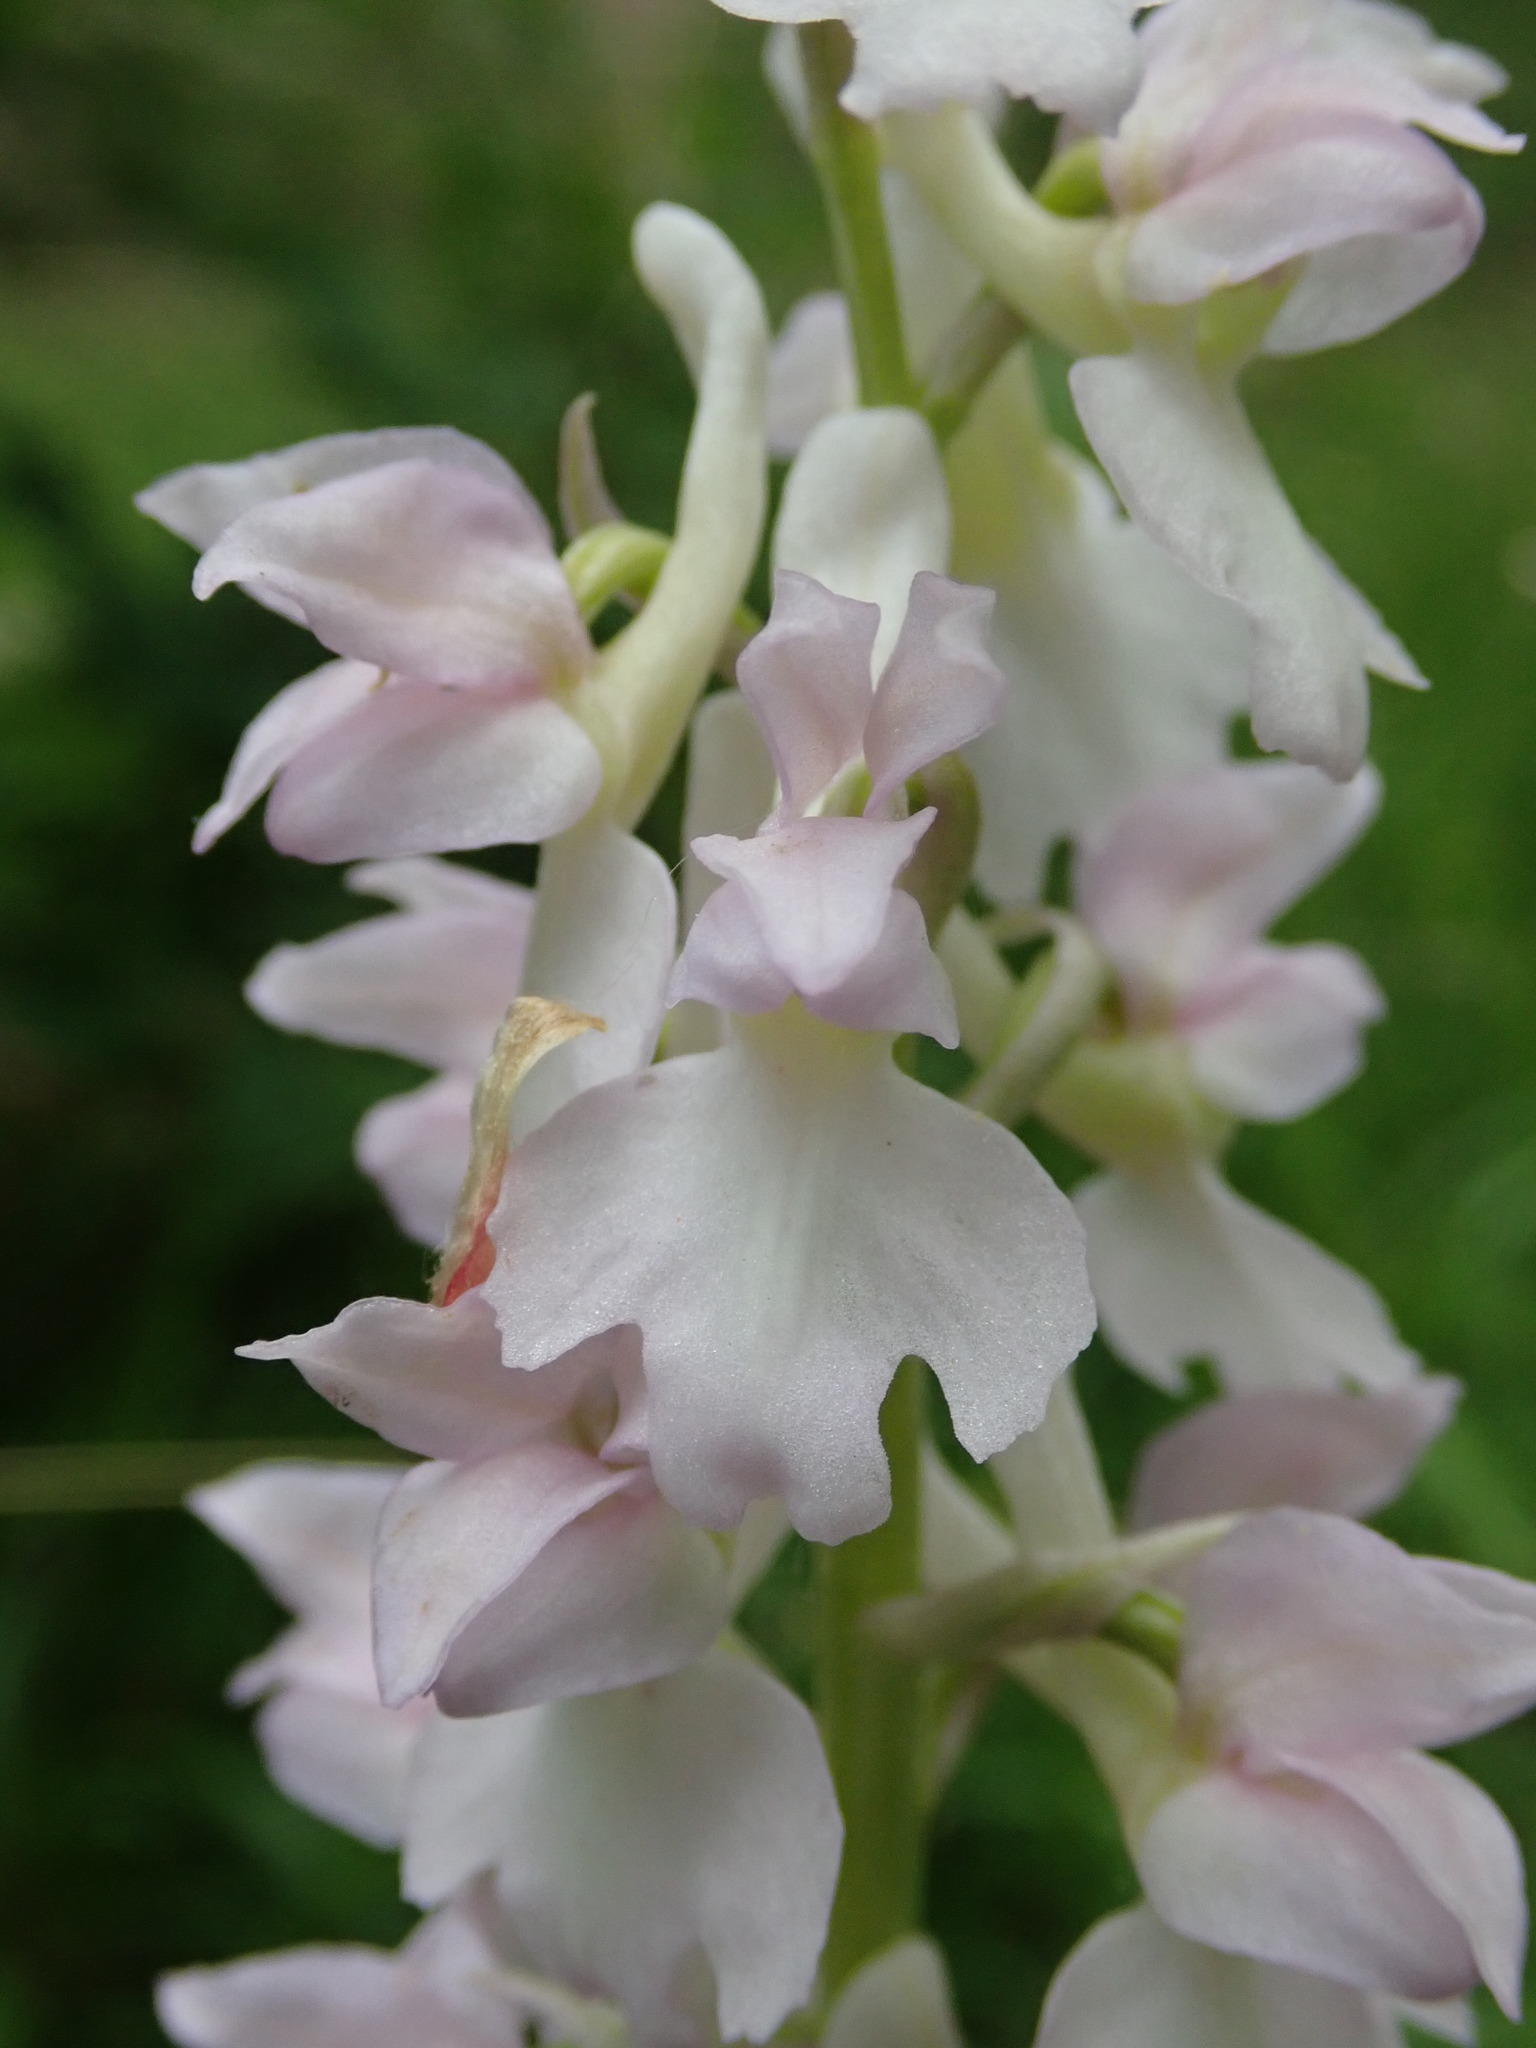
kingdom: Plantae
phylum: Tracheophyta
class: Liliopsida
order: Asparagales
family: Orchidaceae
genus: Orchis
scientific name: Orchis mascula
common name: Early-purple orchid
